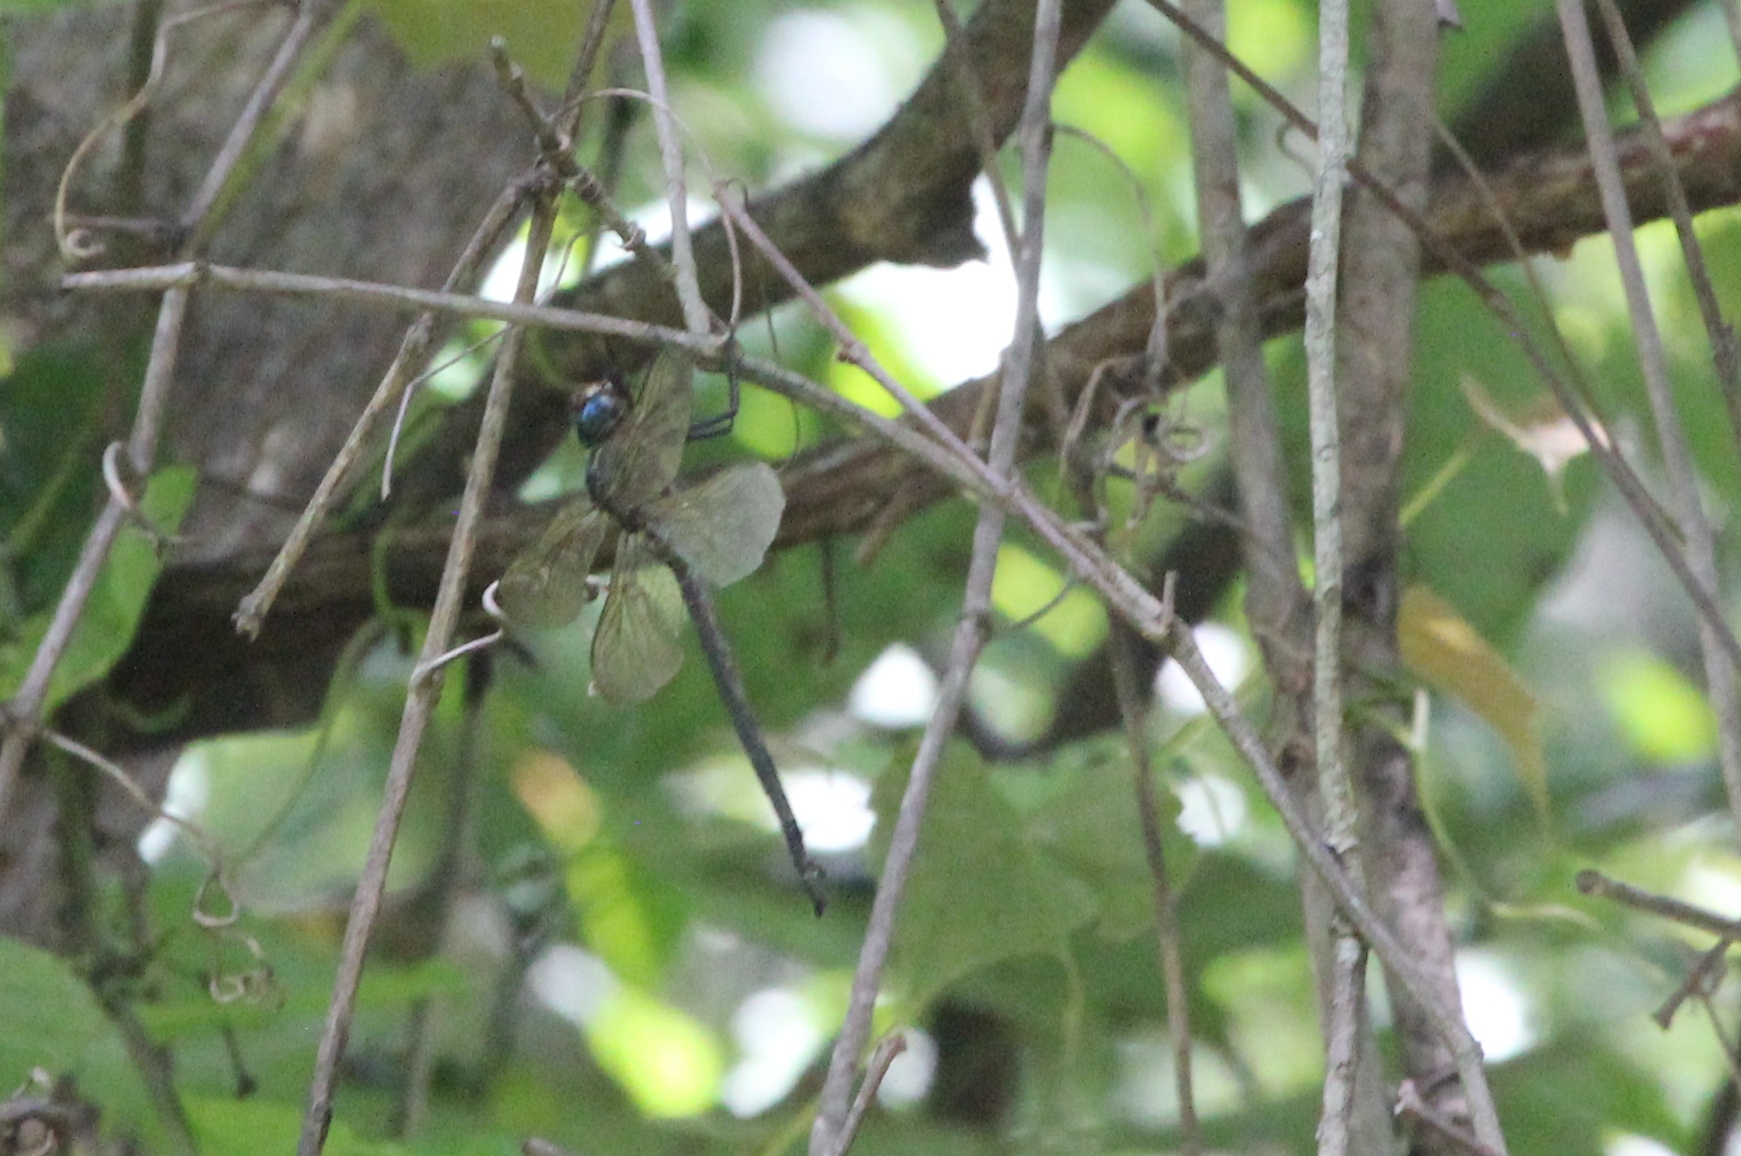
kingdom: Animalia
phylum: Arthropoda
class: Insecta
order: Odonata
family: Aeshnidae
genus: Epiaeschna
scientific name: Epiaeschna heros
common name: Swamp darner
